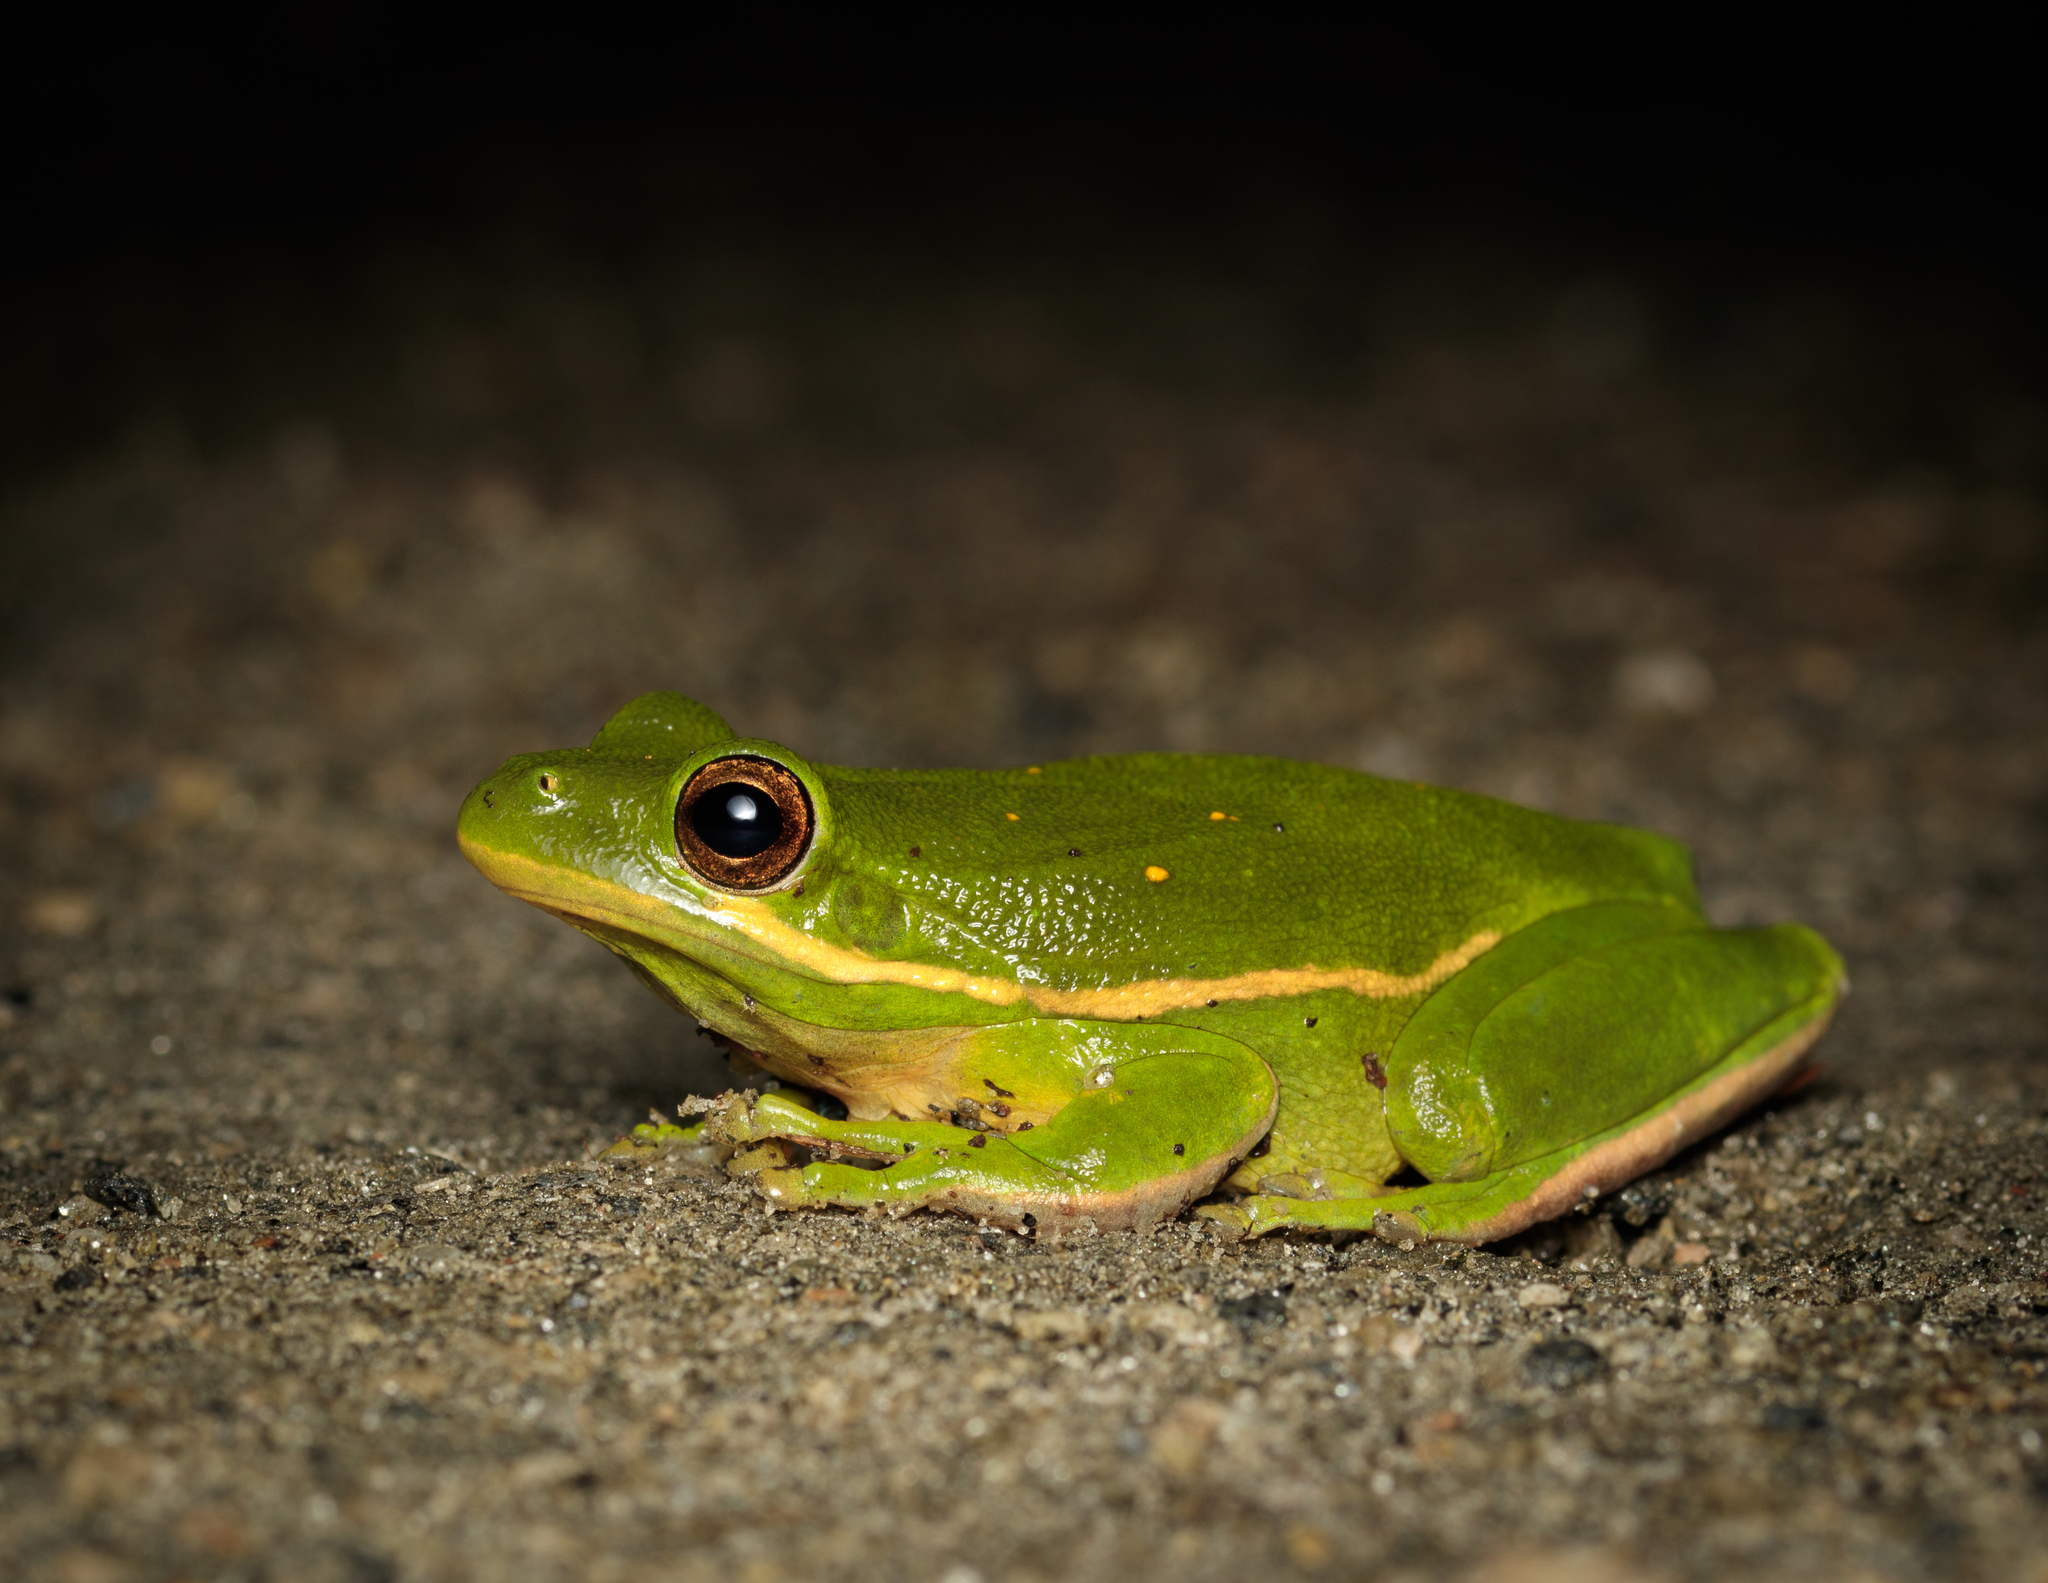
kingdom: Animalia
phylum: Chordata
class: Amphibia
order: Anura
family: Hylidae
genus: Dryophytes
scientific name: Dryophytes cinereus
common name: Green treefrog
